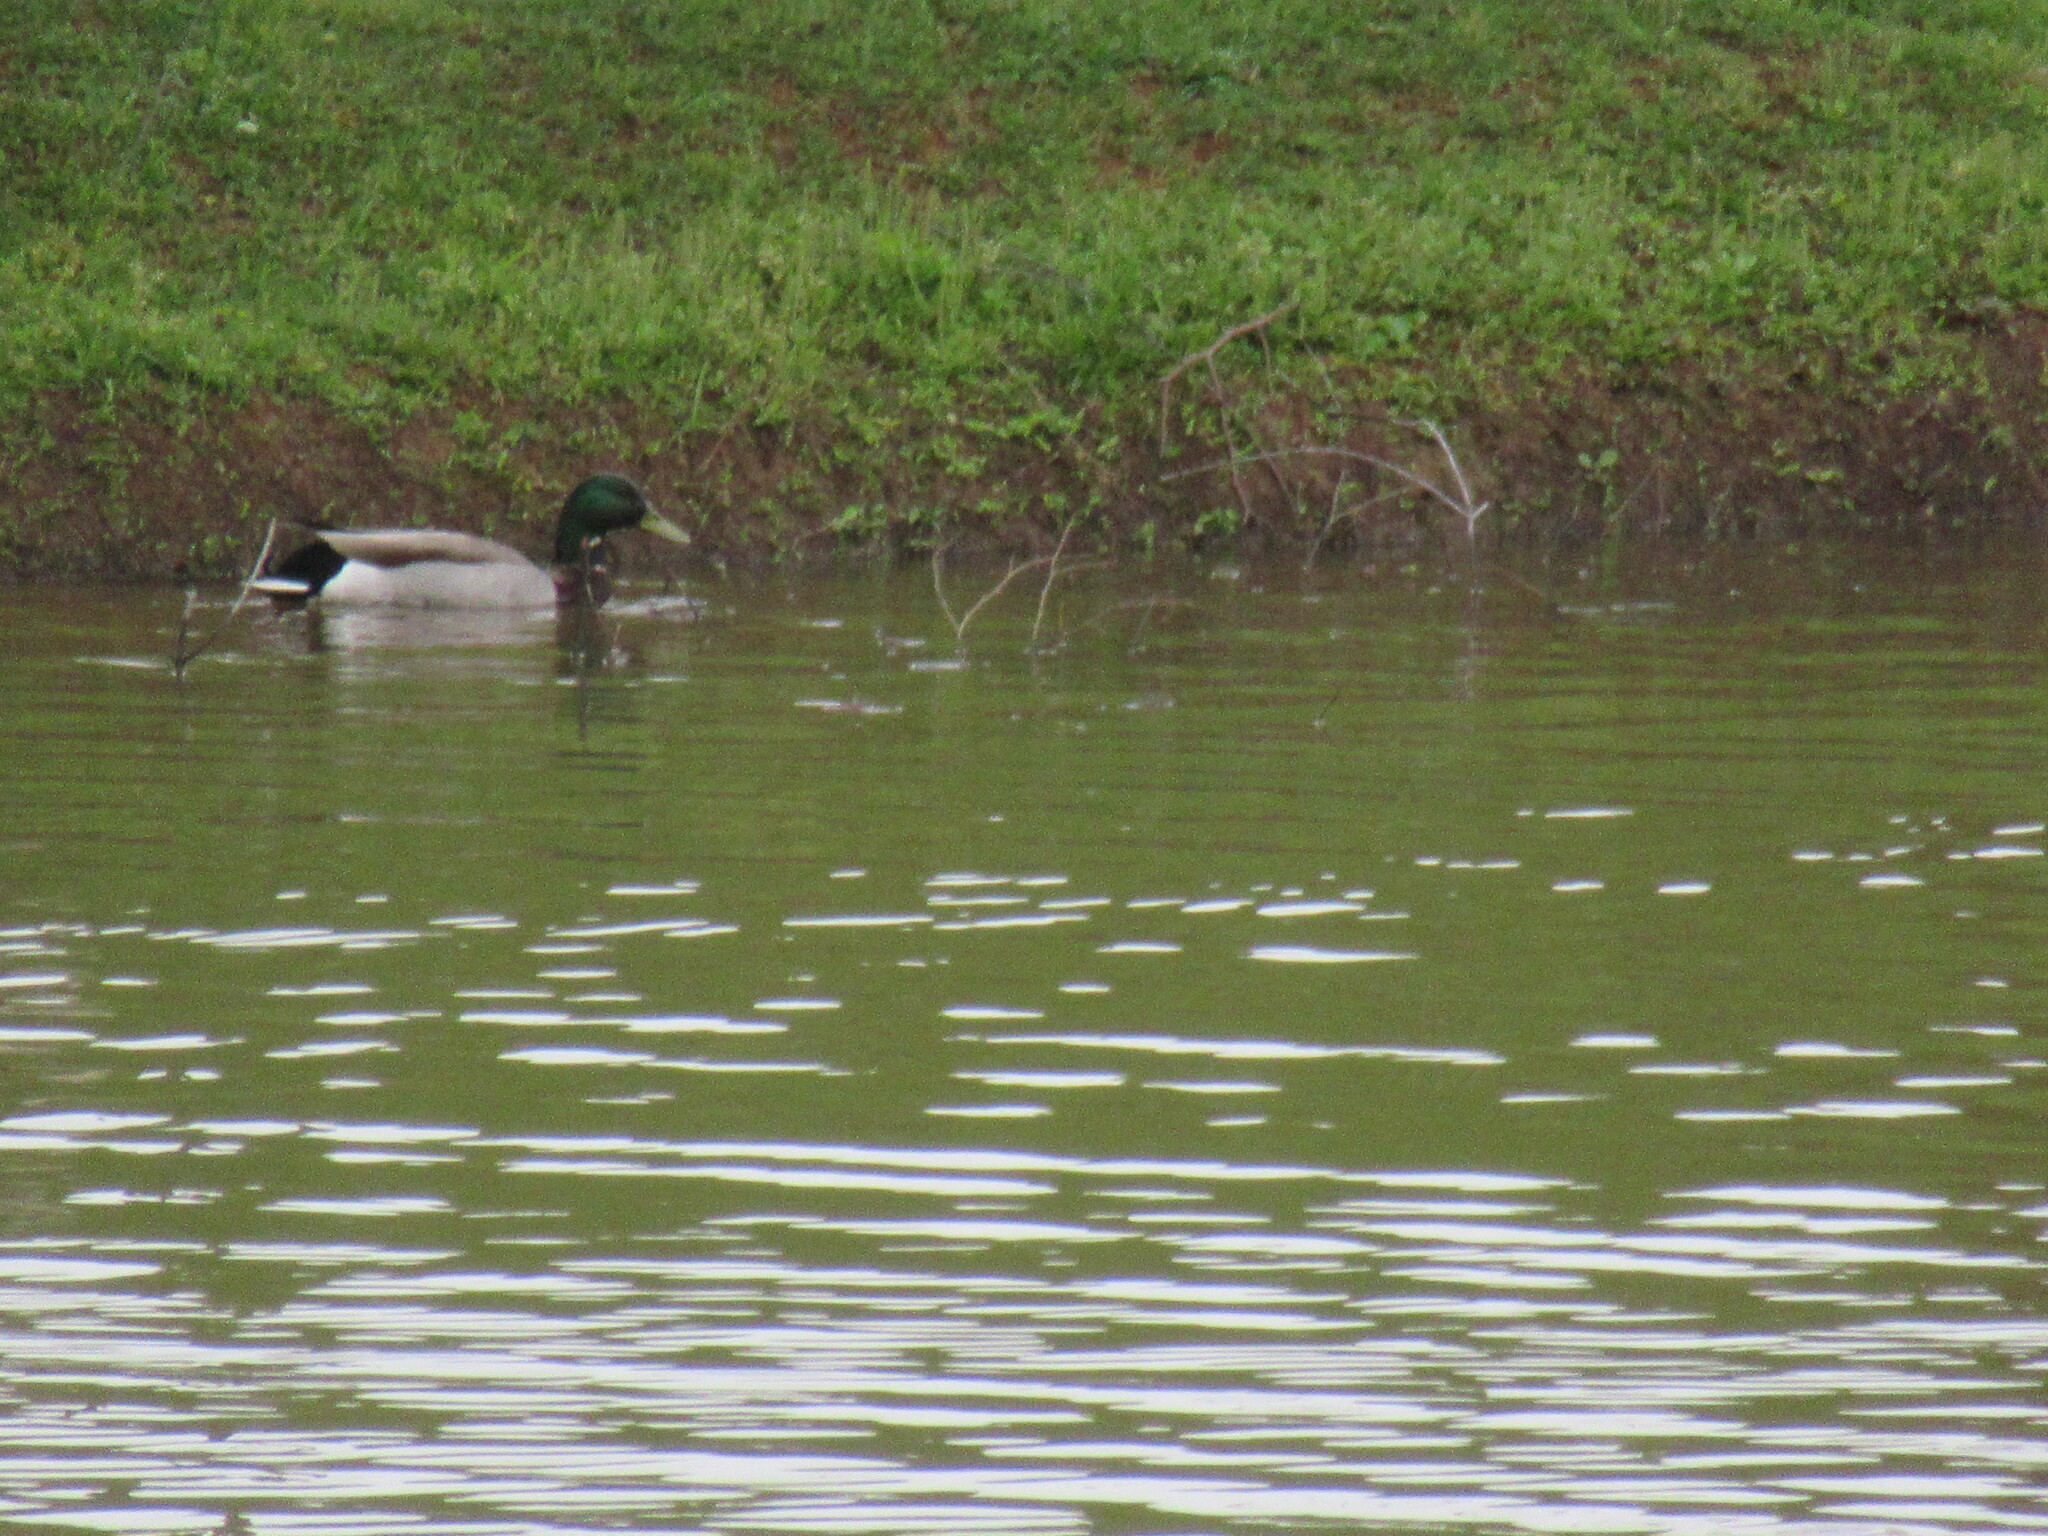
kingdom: Animalia
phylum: Chordata
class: Aves
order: Anseriformes
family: Anatidae
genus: Anas
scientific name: Anas platyrhynchos
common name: Mallard
